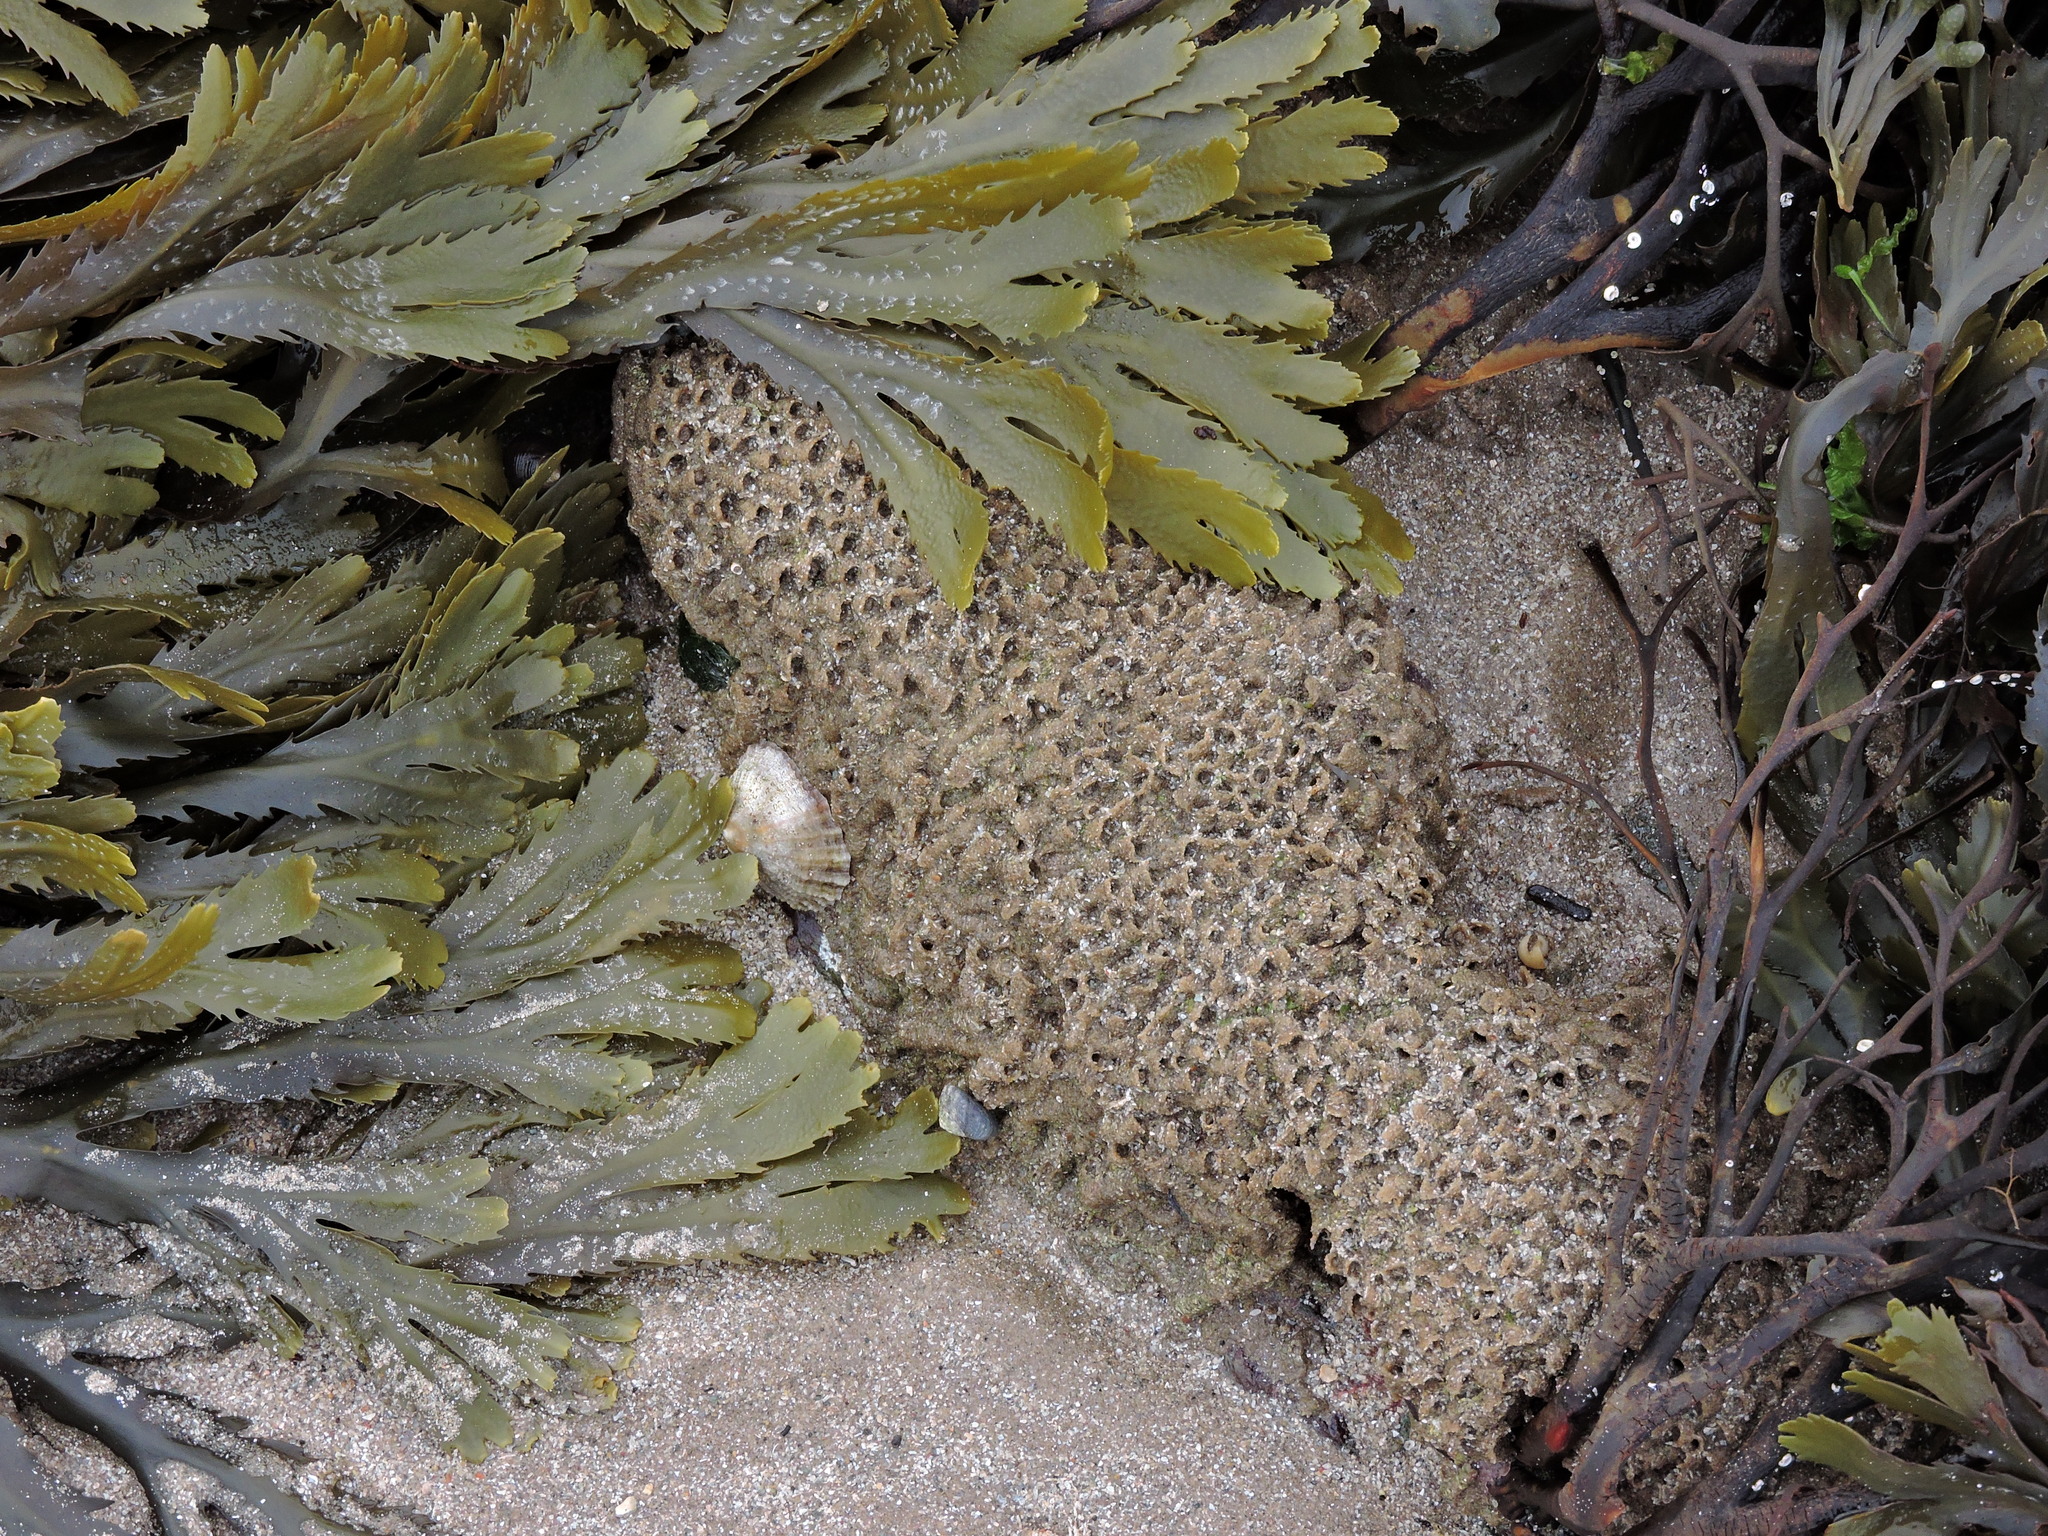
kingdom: Animalia
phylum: Annelida
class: Polychaeta
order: Sabellida
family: Sabellariidae
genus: Sabellaria
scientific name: Sabellaria alveolata
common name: Honeycomb worm
